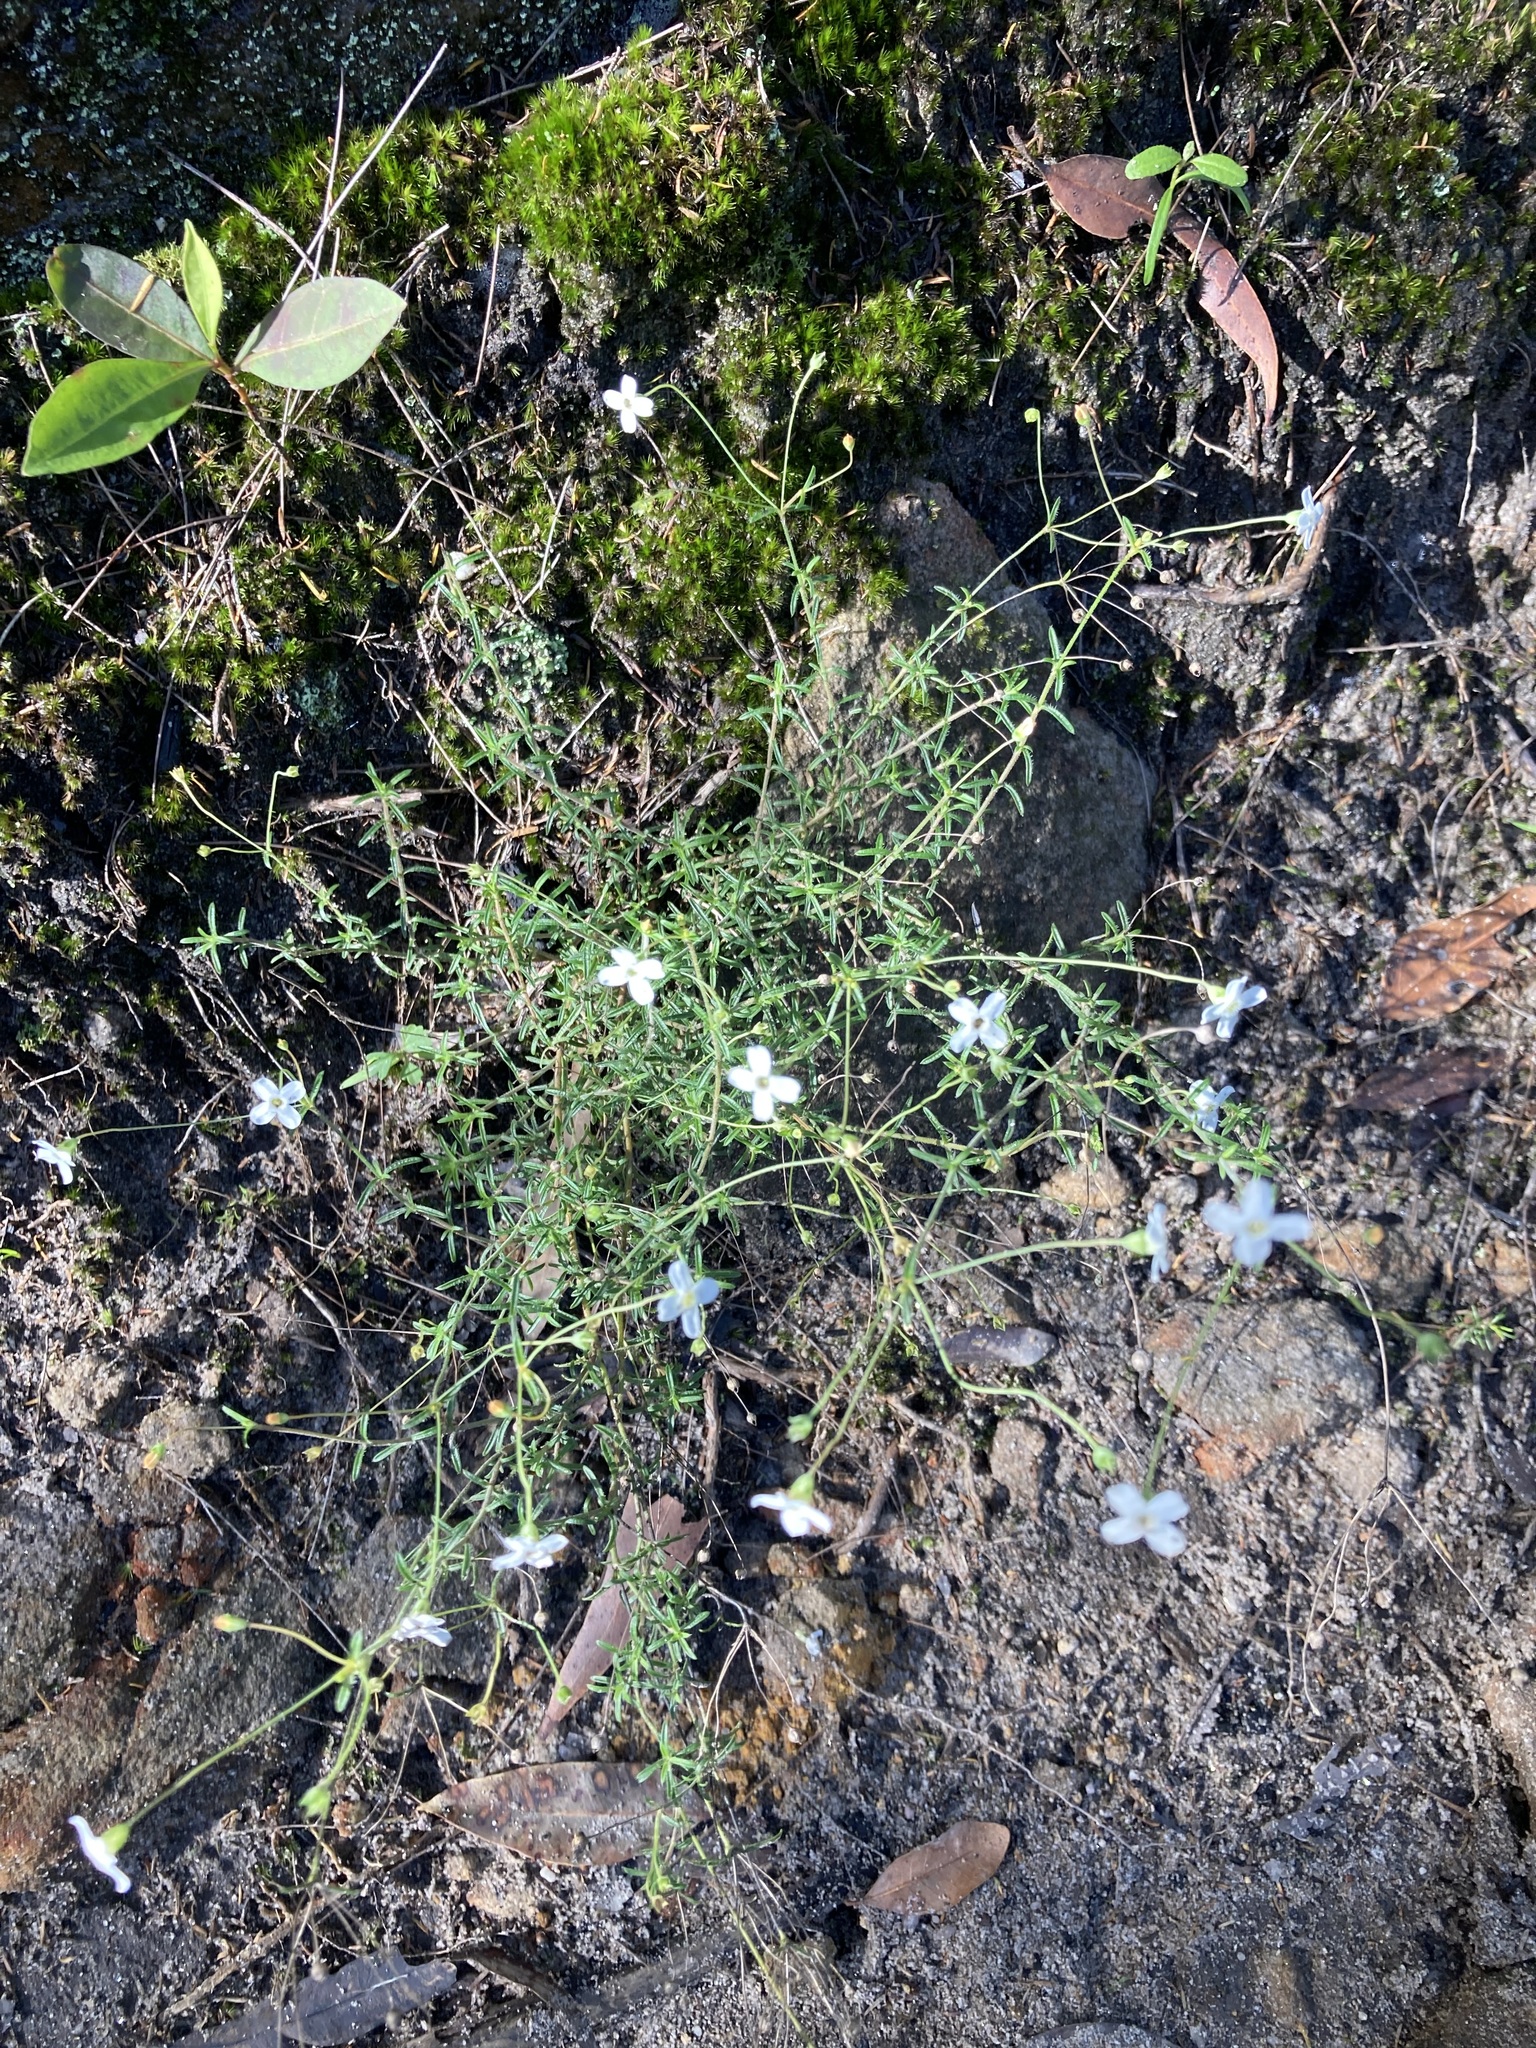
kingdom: Plantae
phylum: Tracheophyta
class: Magnoliopsida
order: Gentianales
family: Loganiaceae
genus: Mitrasacme
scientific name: Mitrasacme polymorpha
